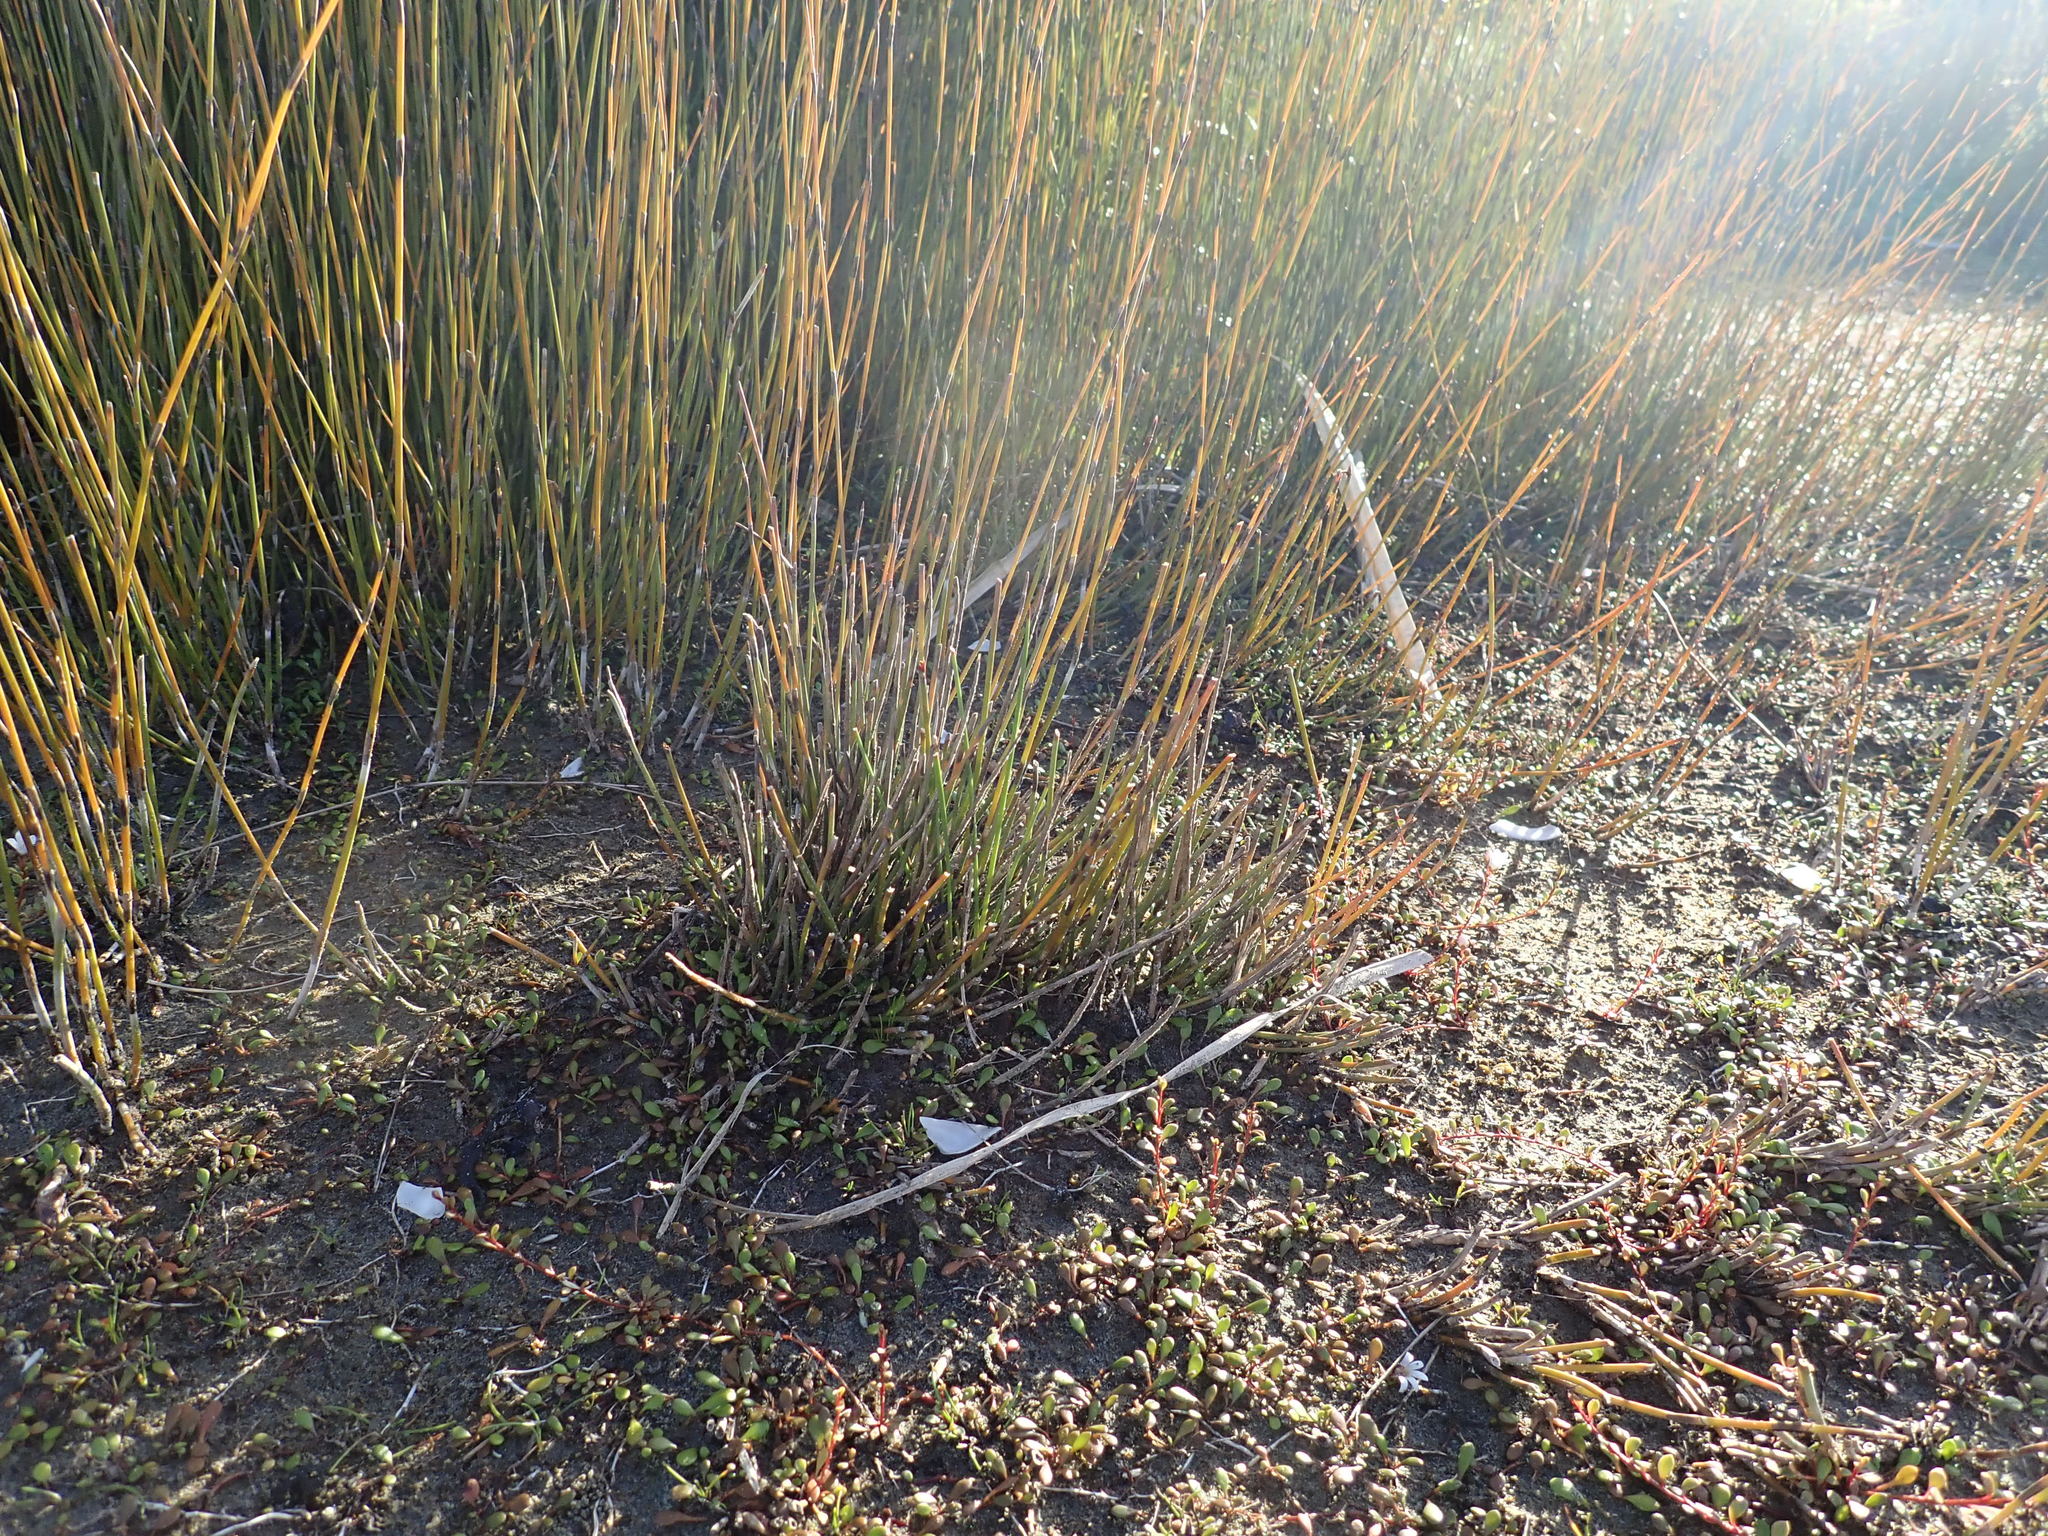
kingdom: Plantae
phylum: Tracheophyta
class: Liliopsida
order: Poales
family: Restionaceae
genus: Apodasmia
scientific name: Apodasmia similis
